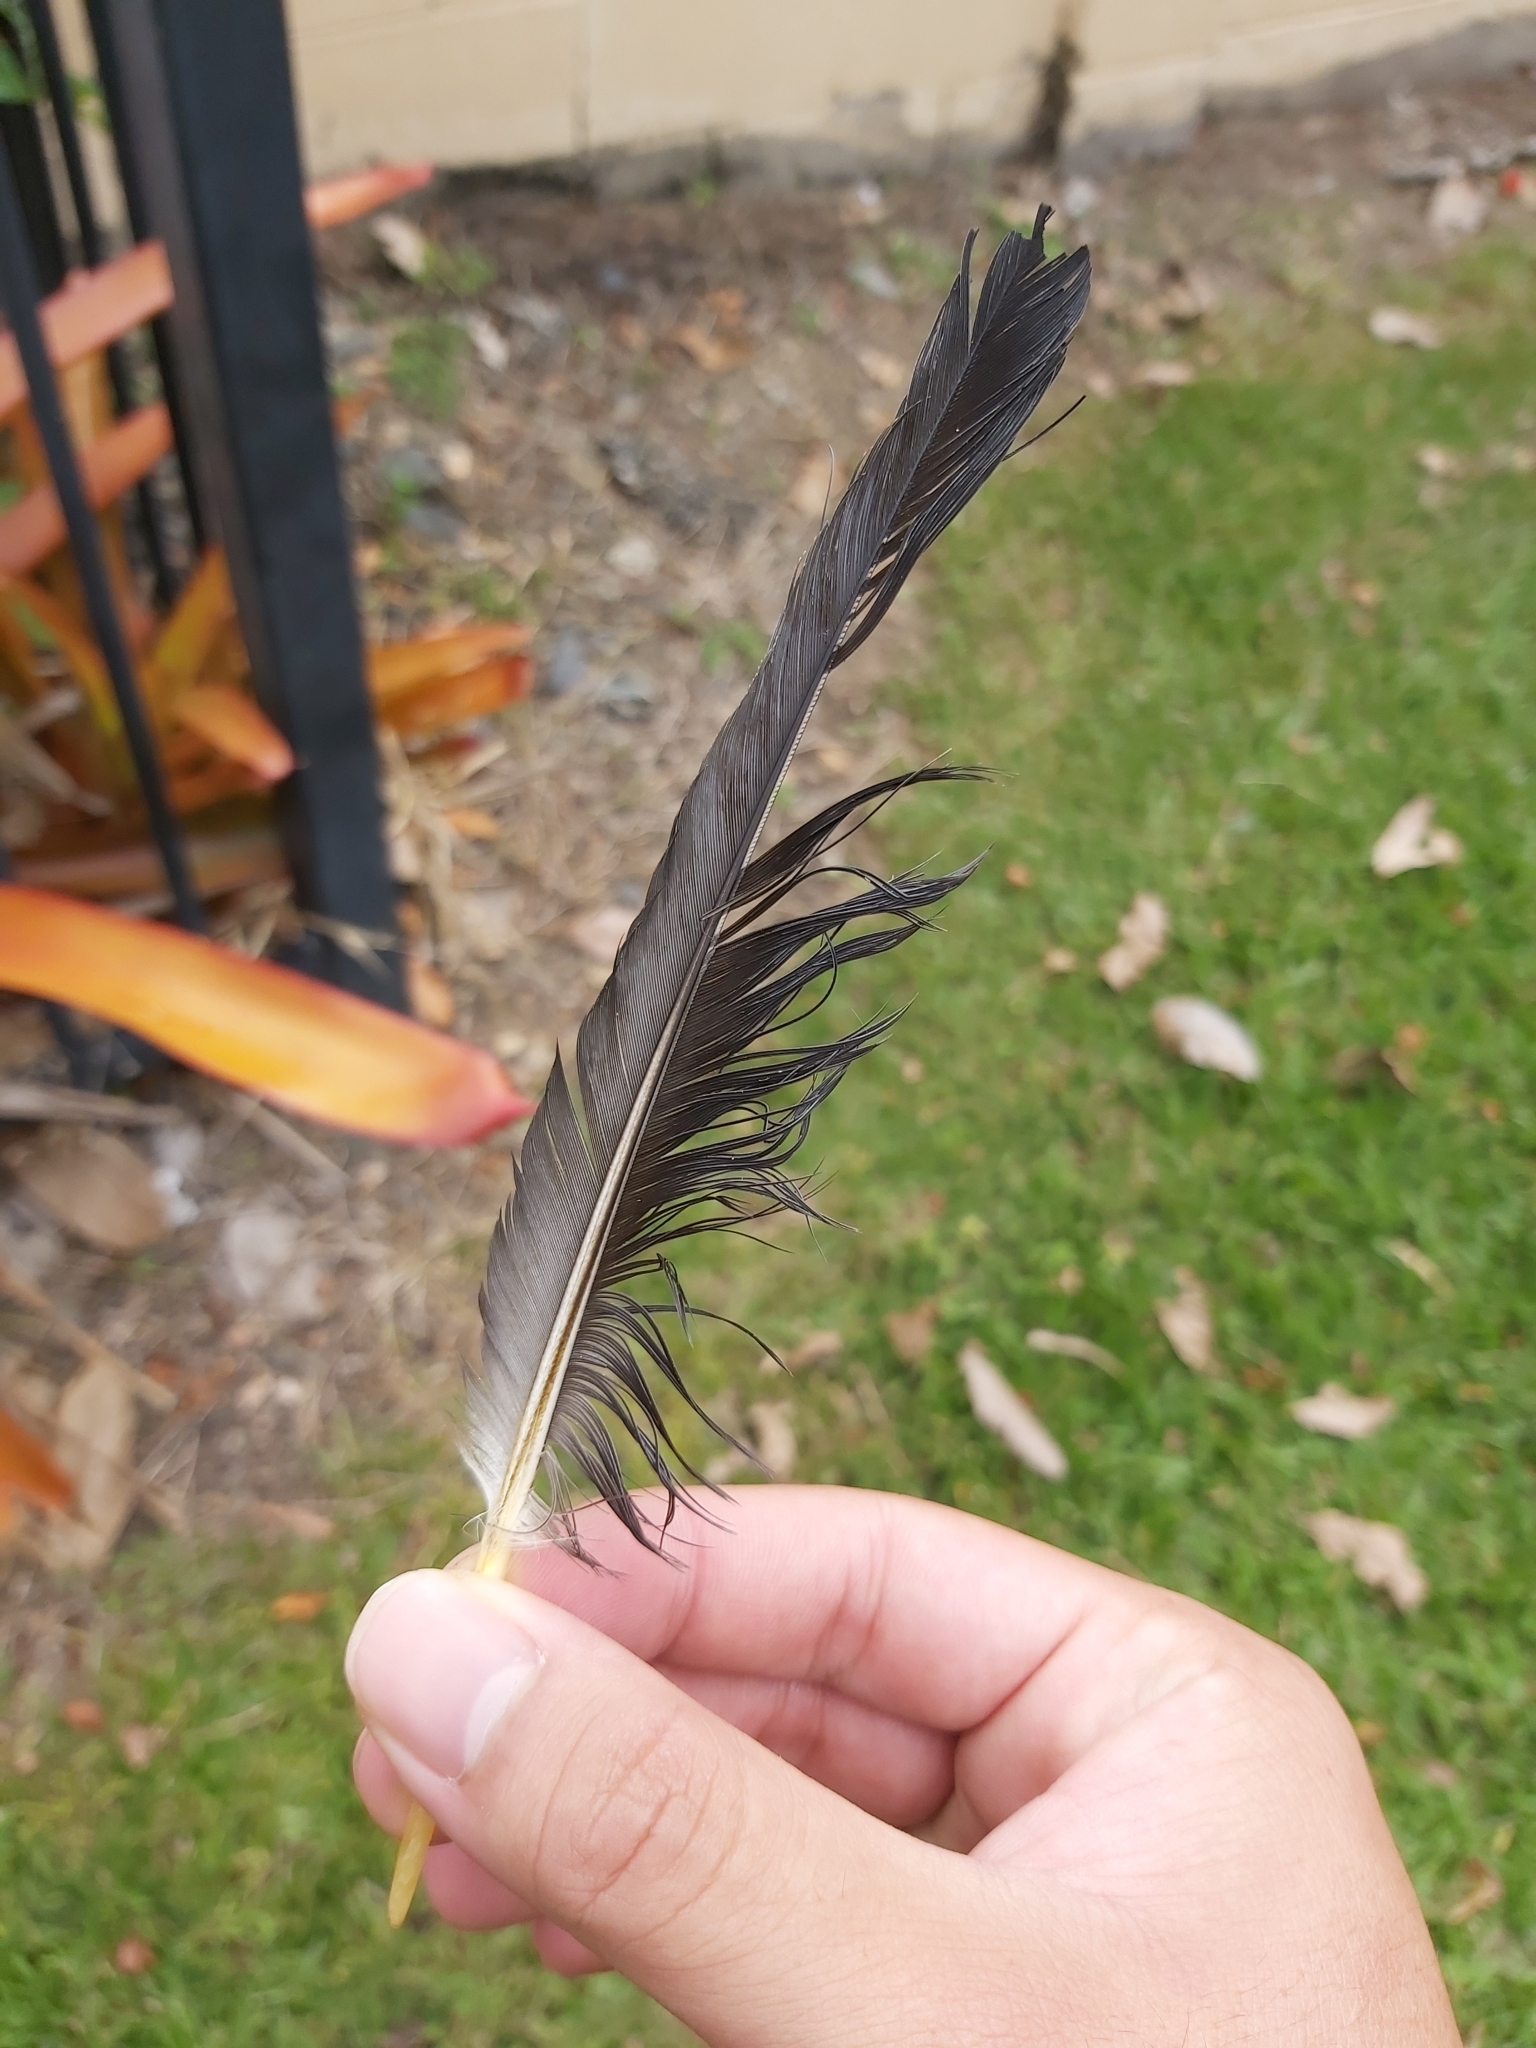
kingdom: Animalia
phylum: Chordata
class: Aves
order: Columbiformes
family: Columbidae
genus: Ducula
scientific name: Ducula spilorrhoa
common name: Torresian imperial pigeon
